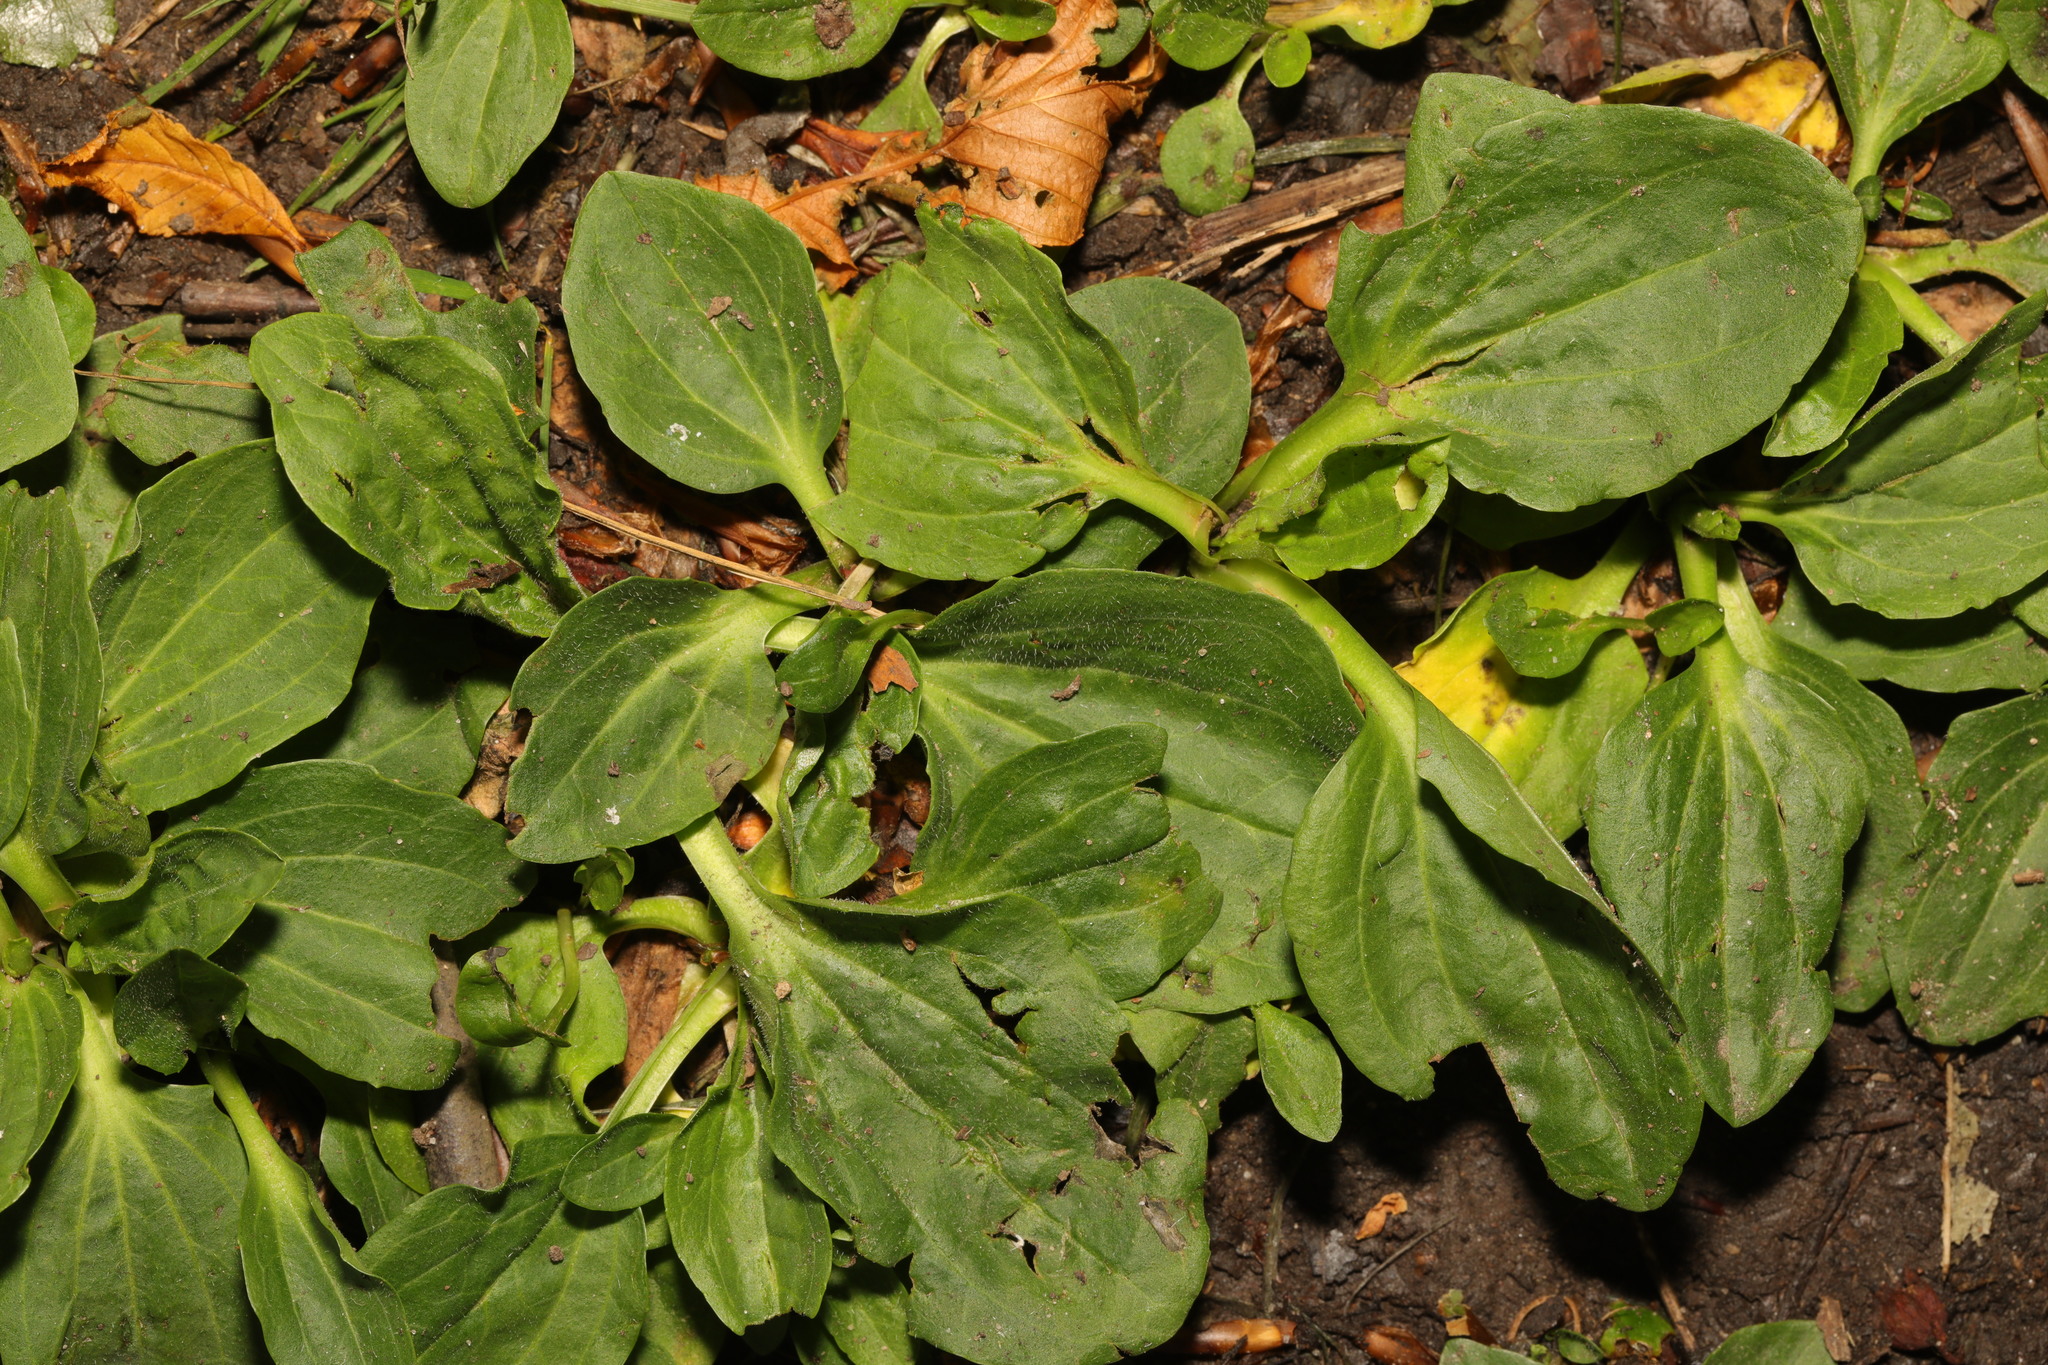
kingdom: Plantae
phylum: Tracheophyta
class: Magnoliopsida
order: Lamiales
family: Plantaginaceae
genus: Plantago
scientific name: Plantago major
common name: Common plantain
